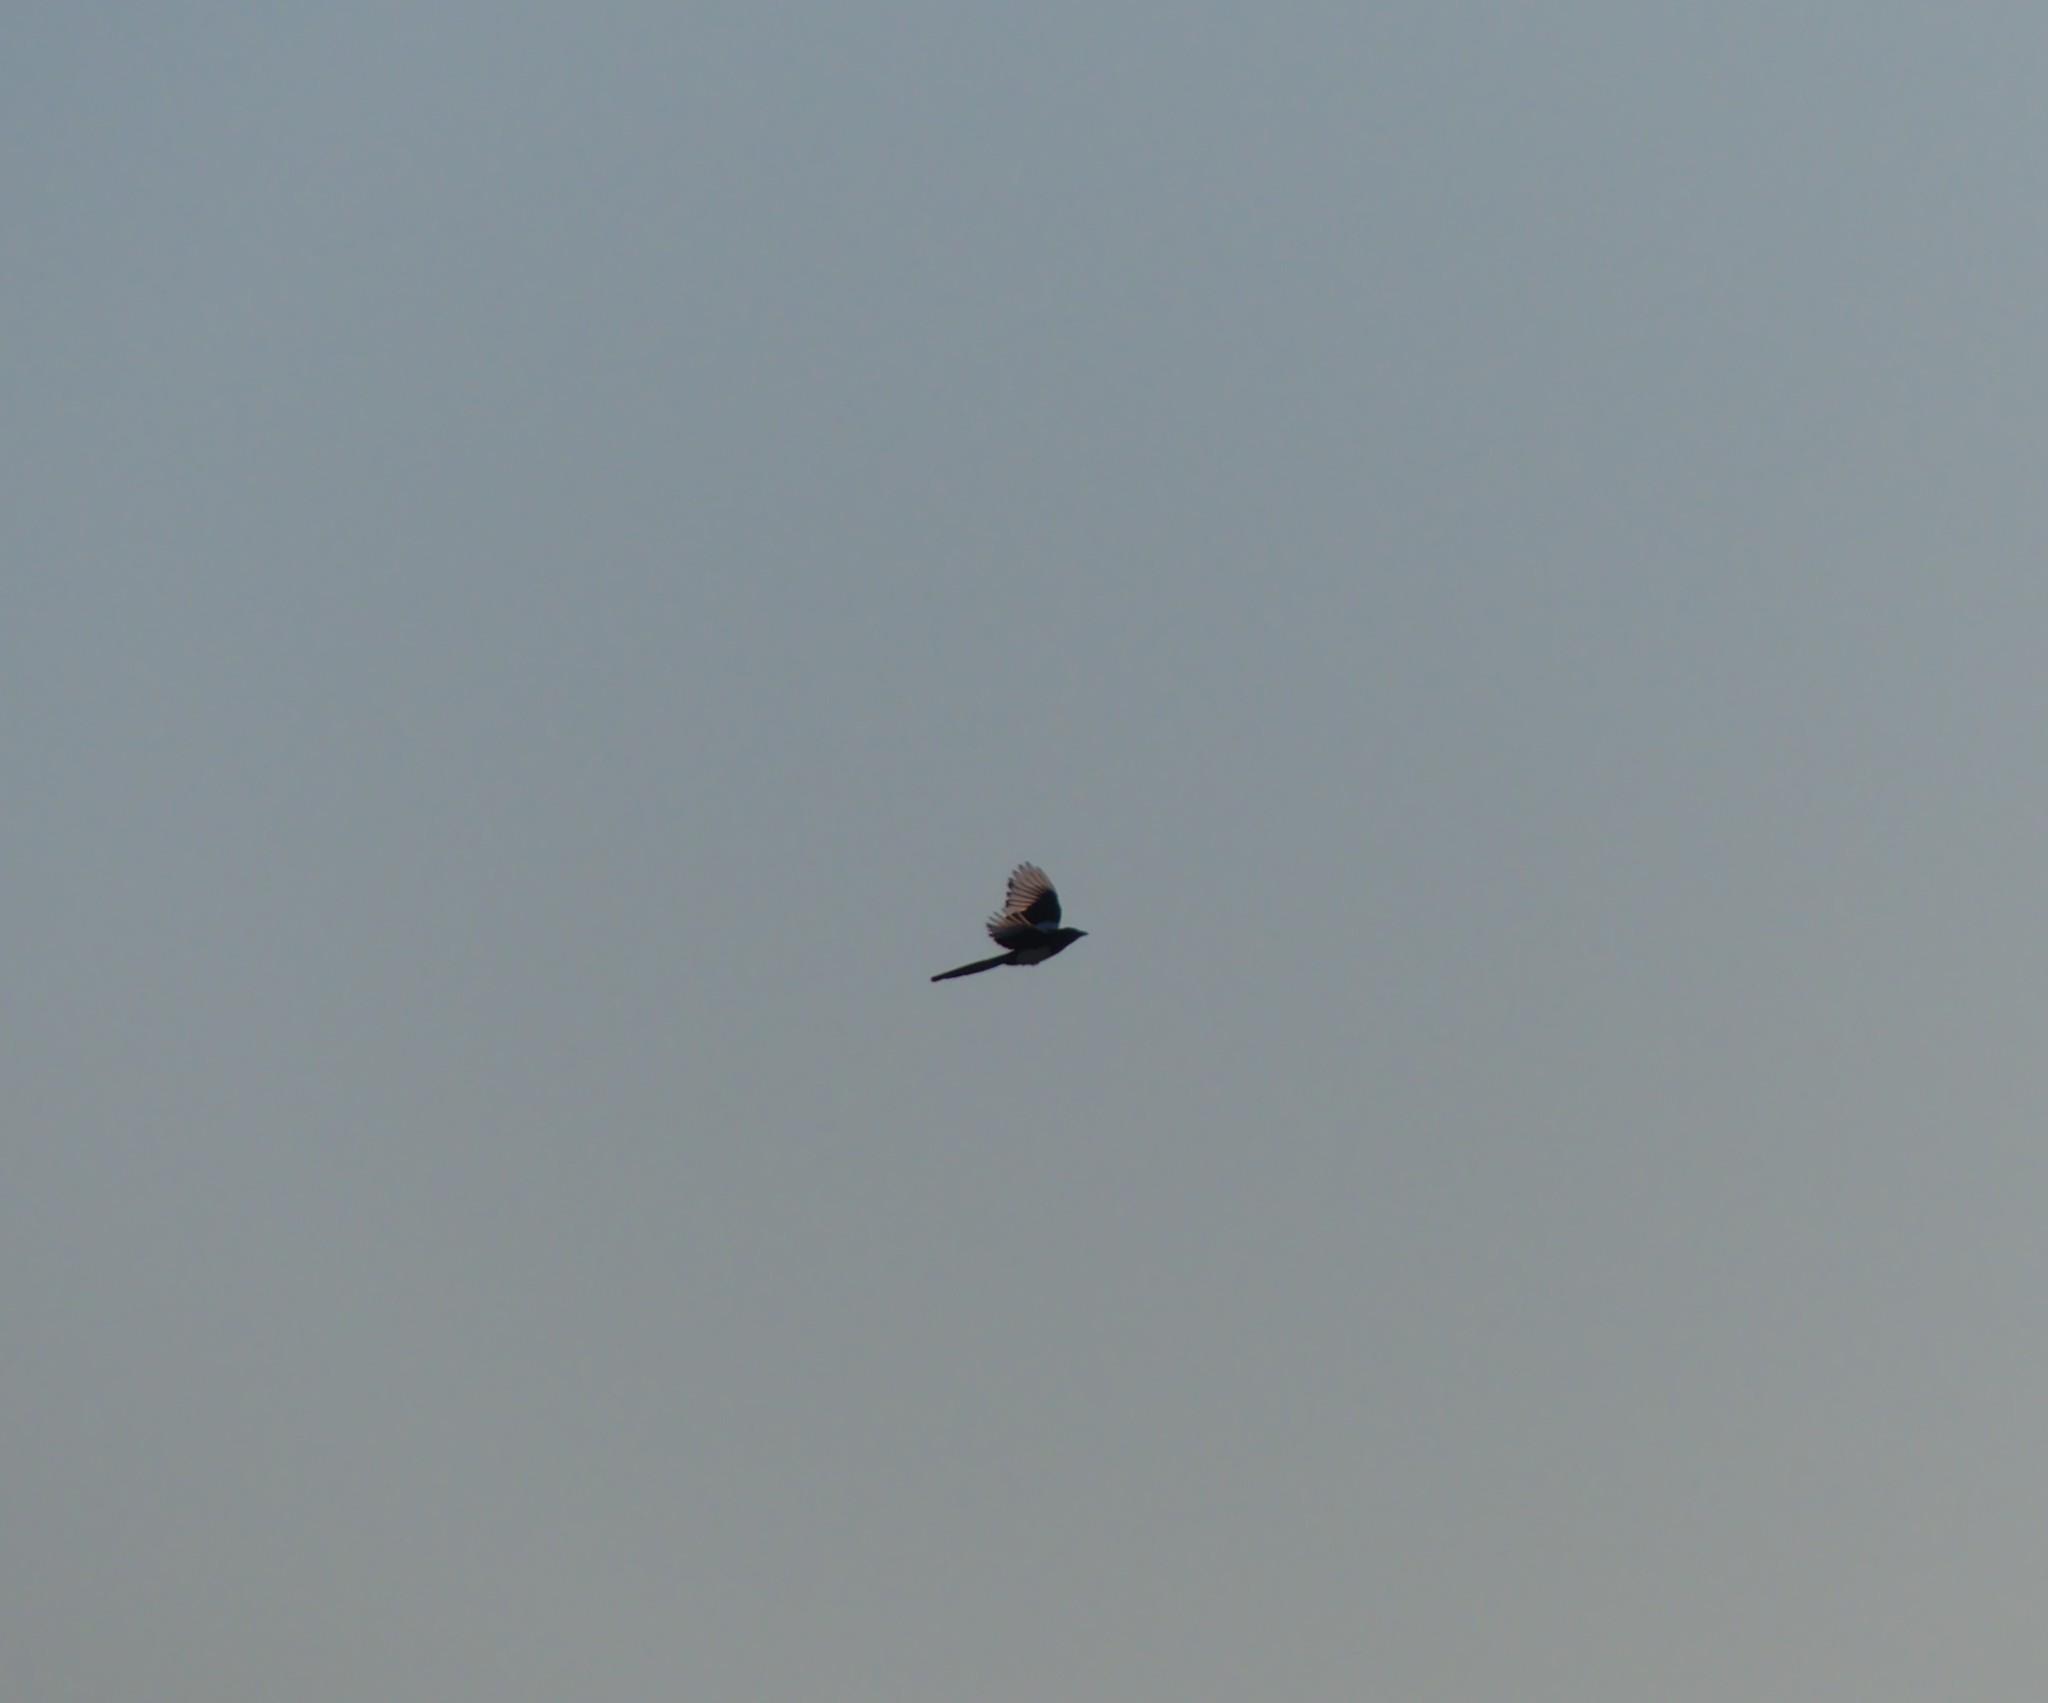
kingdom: Animalia
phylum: Chordata
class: Aves
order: Passeriformes
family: Corvidae
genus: Pica
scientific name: Pica pica
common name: Eurasian magpie
